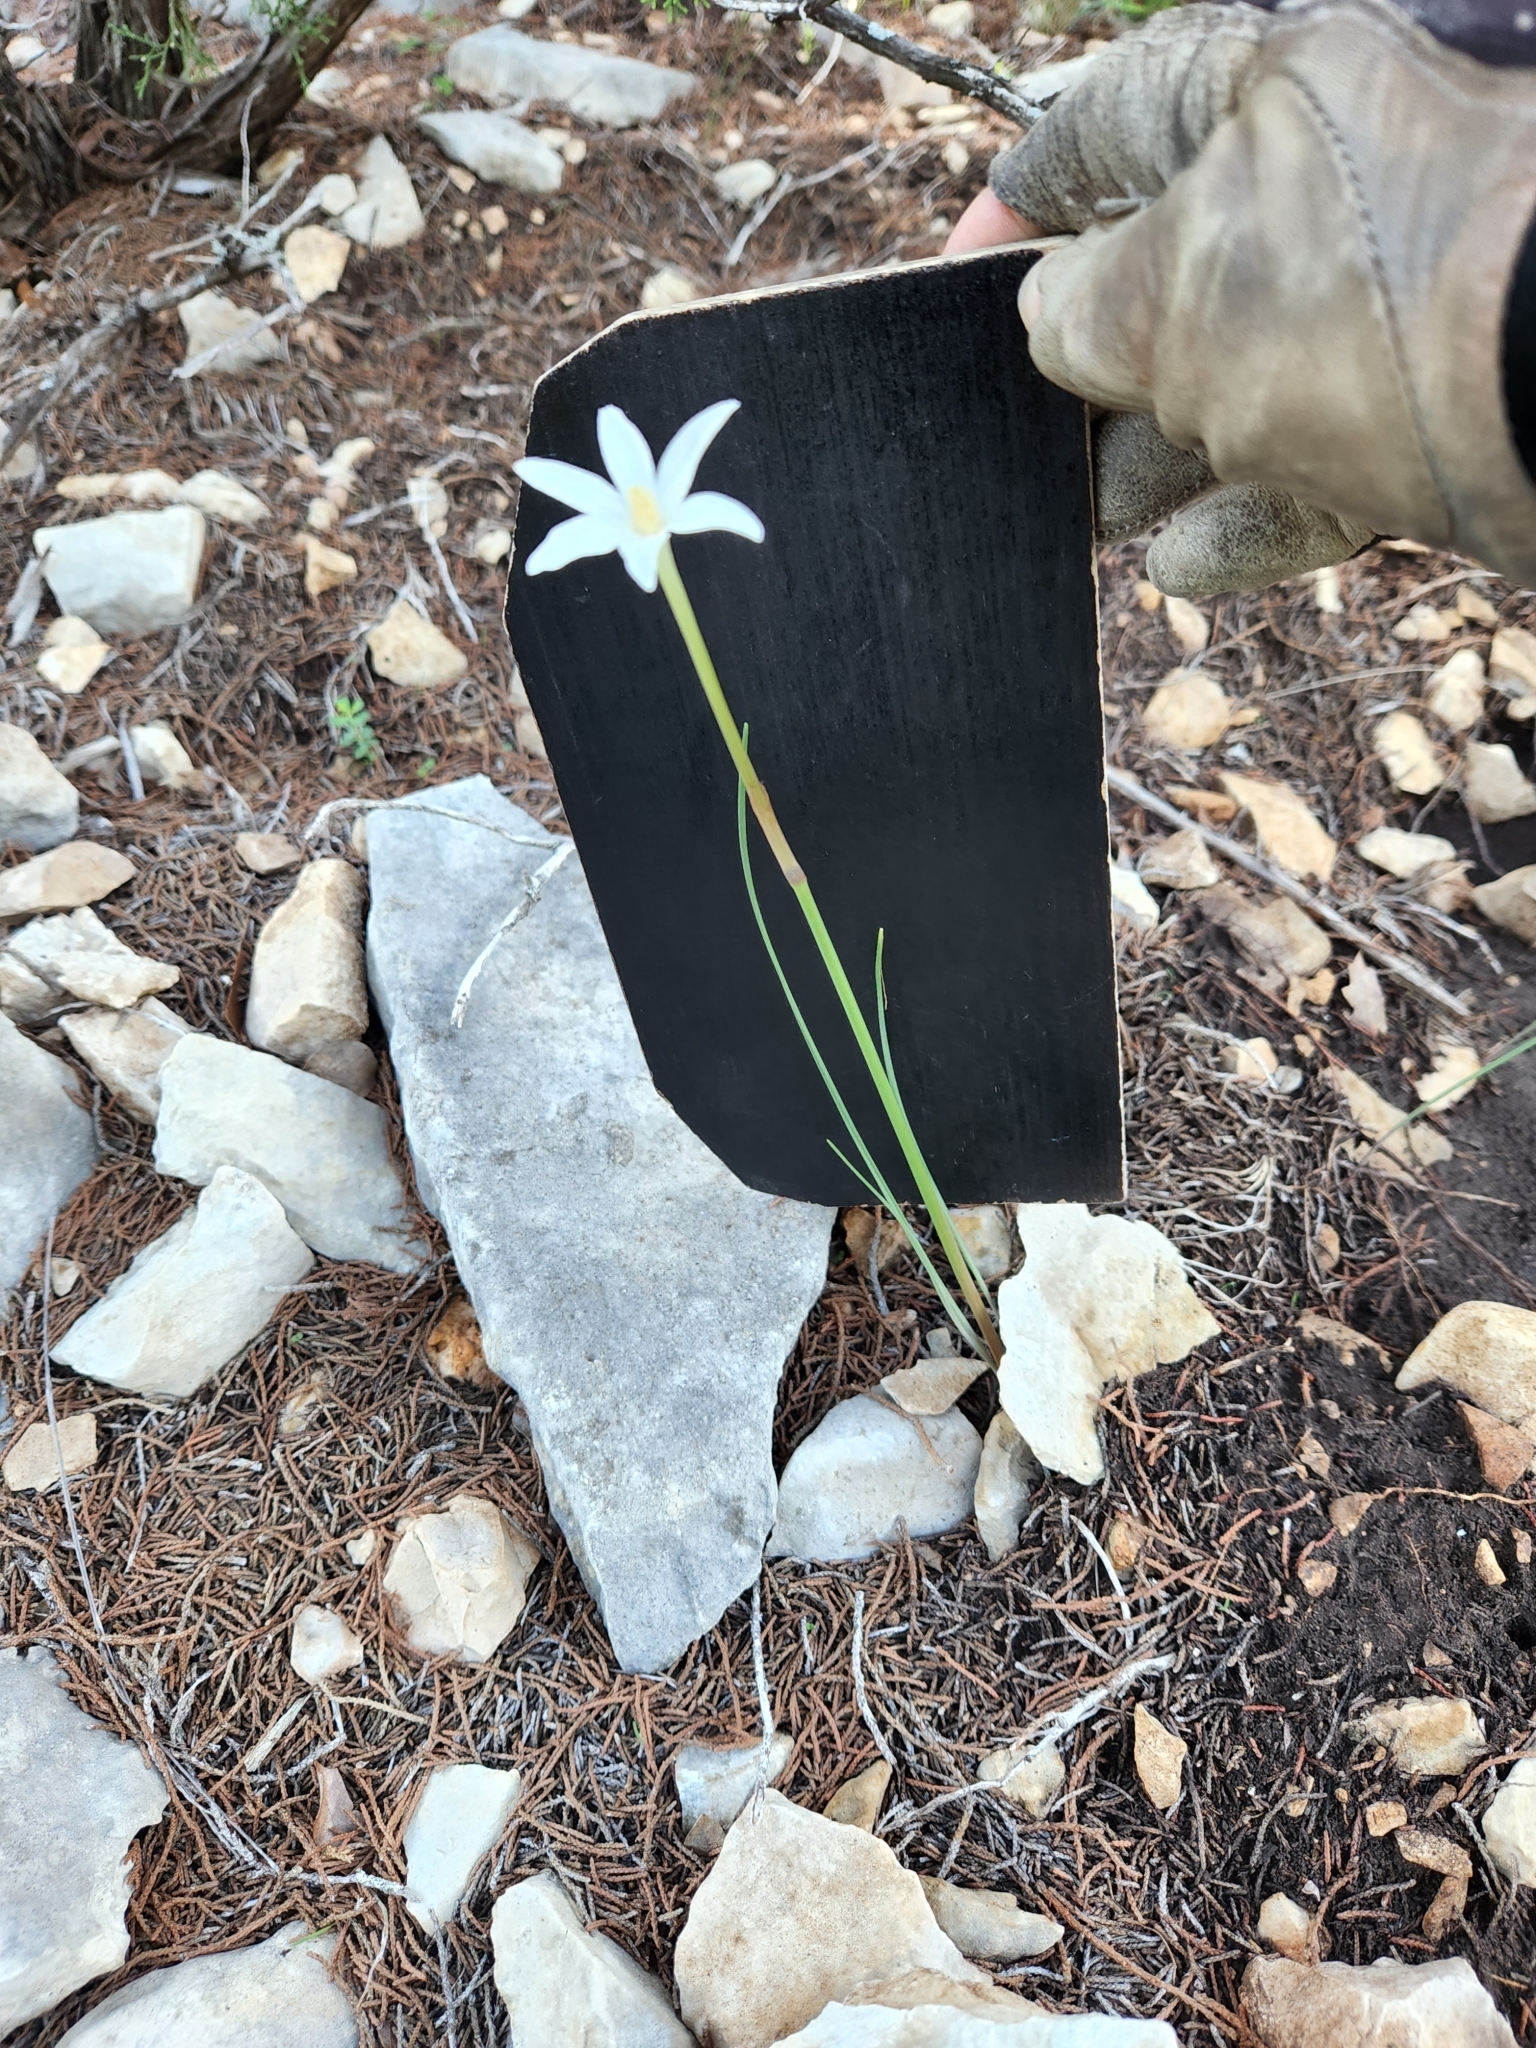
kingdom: Plantae
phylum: Tracheophyta
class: Liliopsida
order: Asparagales
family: Amaryllidaceae
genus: Zephyranthes
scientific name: Zephyranthes chlorosolen
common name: Evening rain-lily
